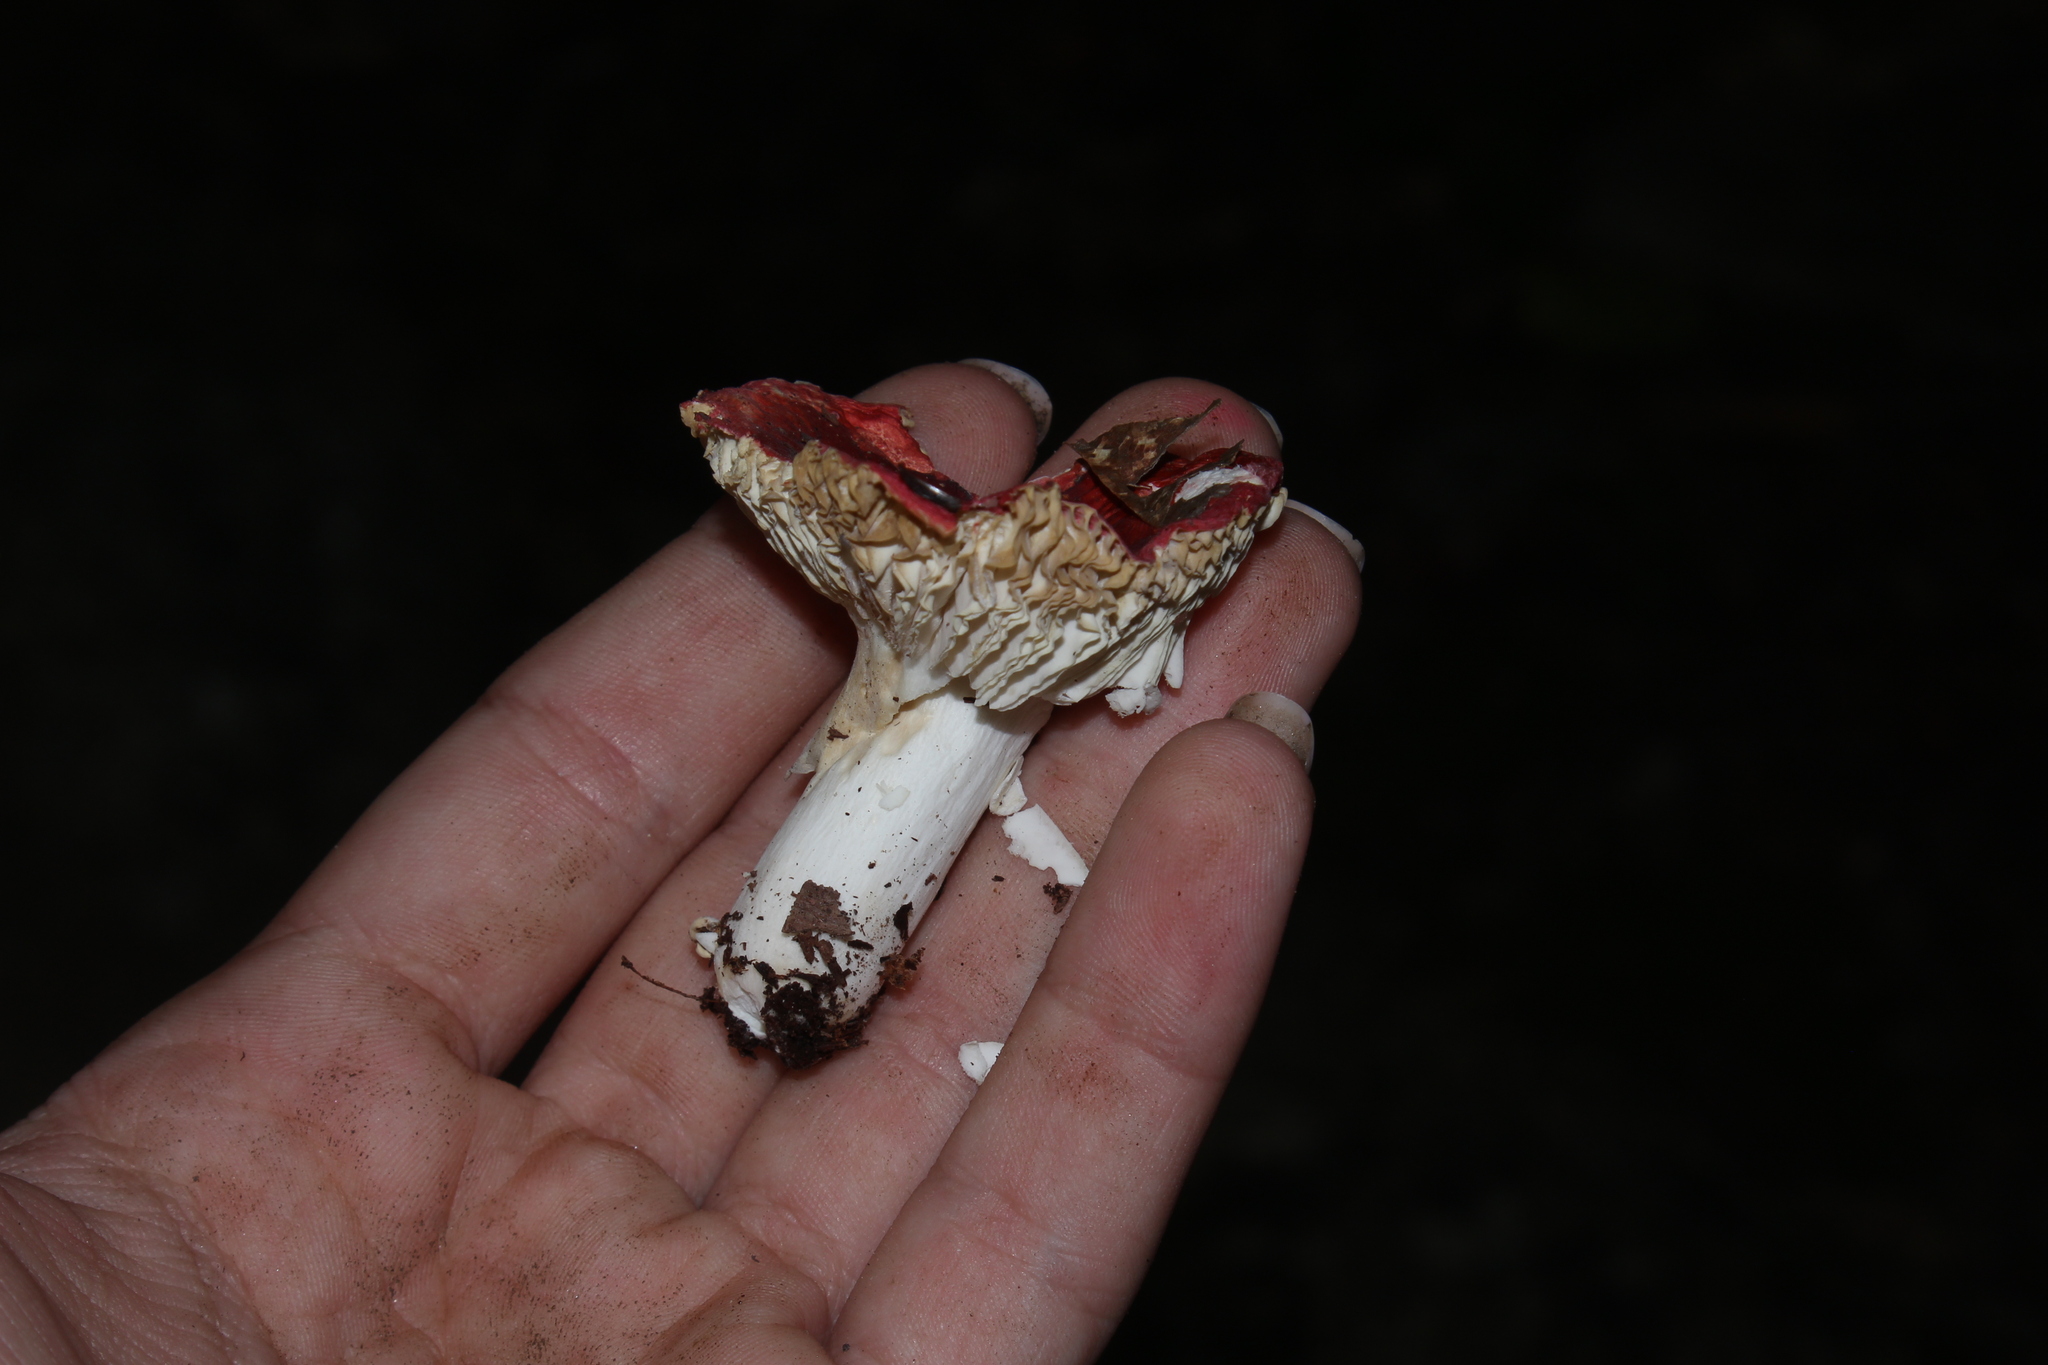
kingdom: Fungi
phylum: Basidiomycota
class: Agaricomycetes
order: Russulales
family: Russulaceae
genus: Russula
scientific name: Russula
